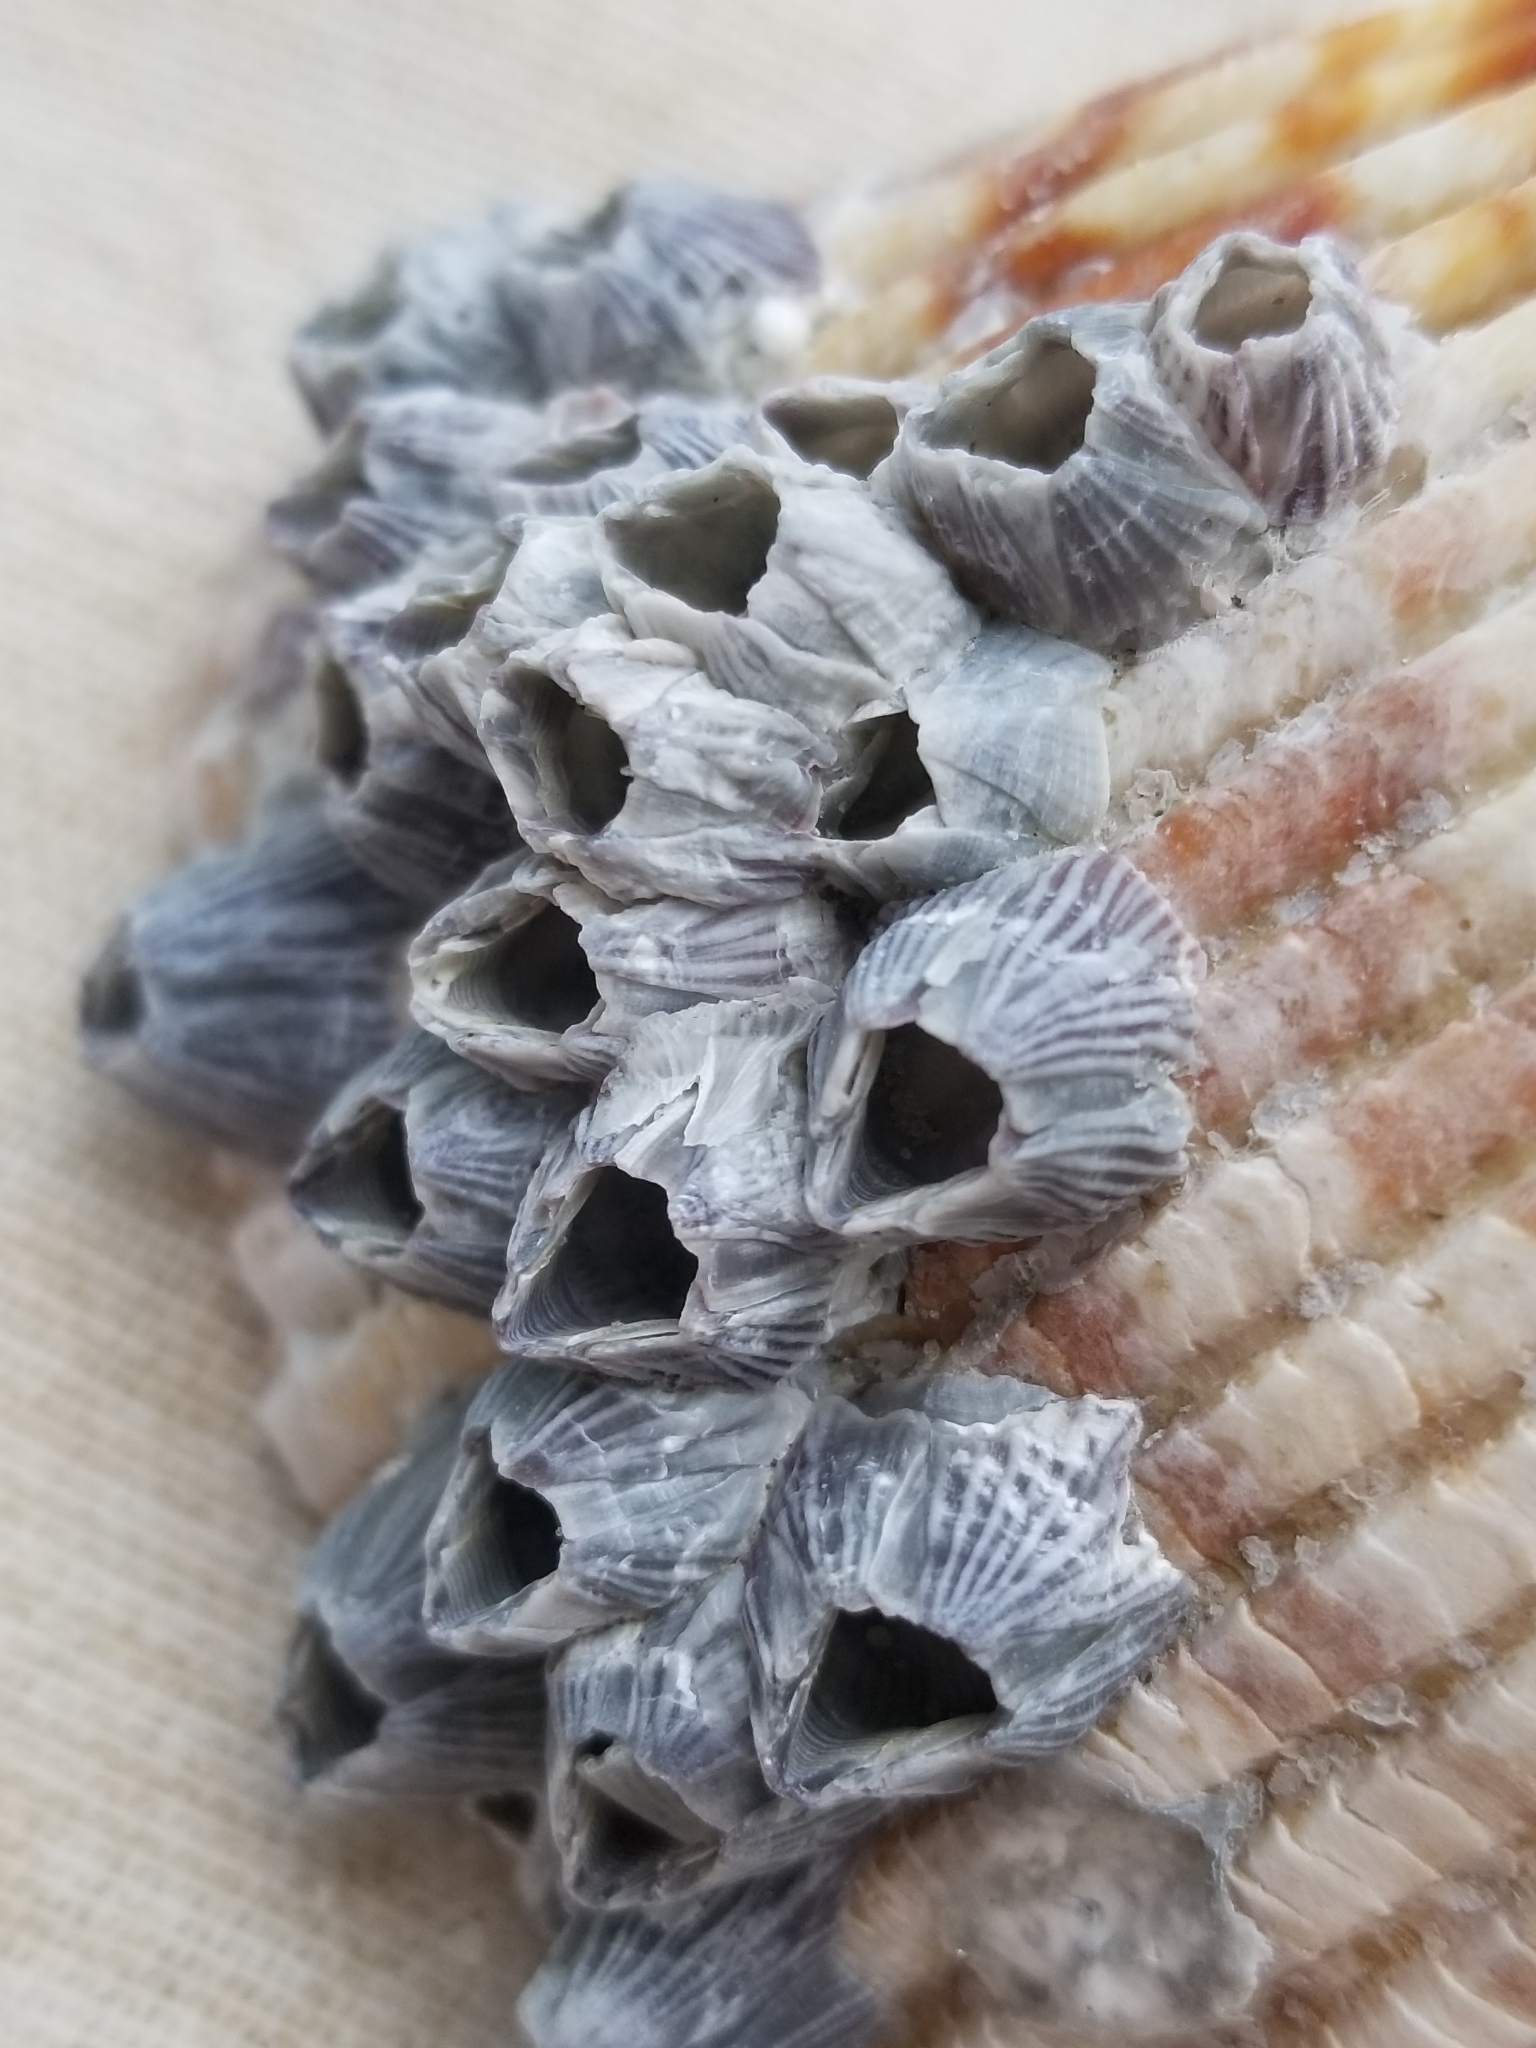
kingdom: Animalia
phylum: Arthropoda
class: Maxillopoda
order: Sessilia
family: Balanidae
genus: Balanus
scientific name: Balanus trigonus
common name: Triangle barnacle
